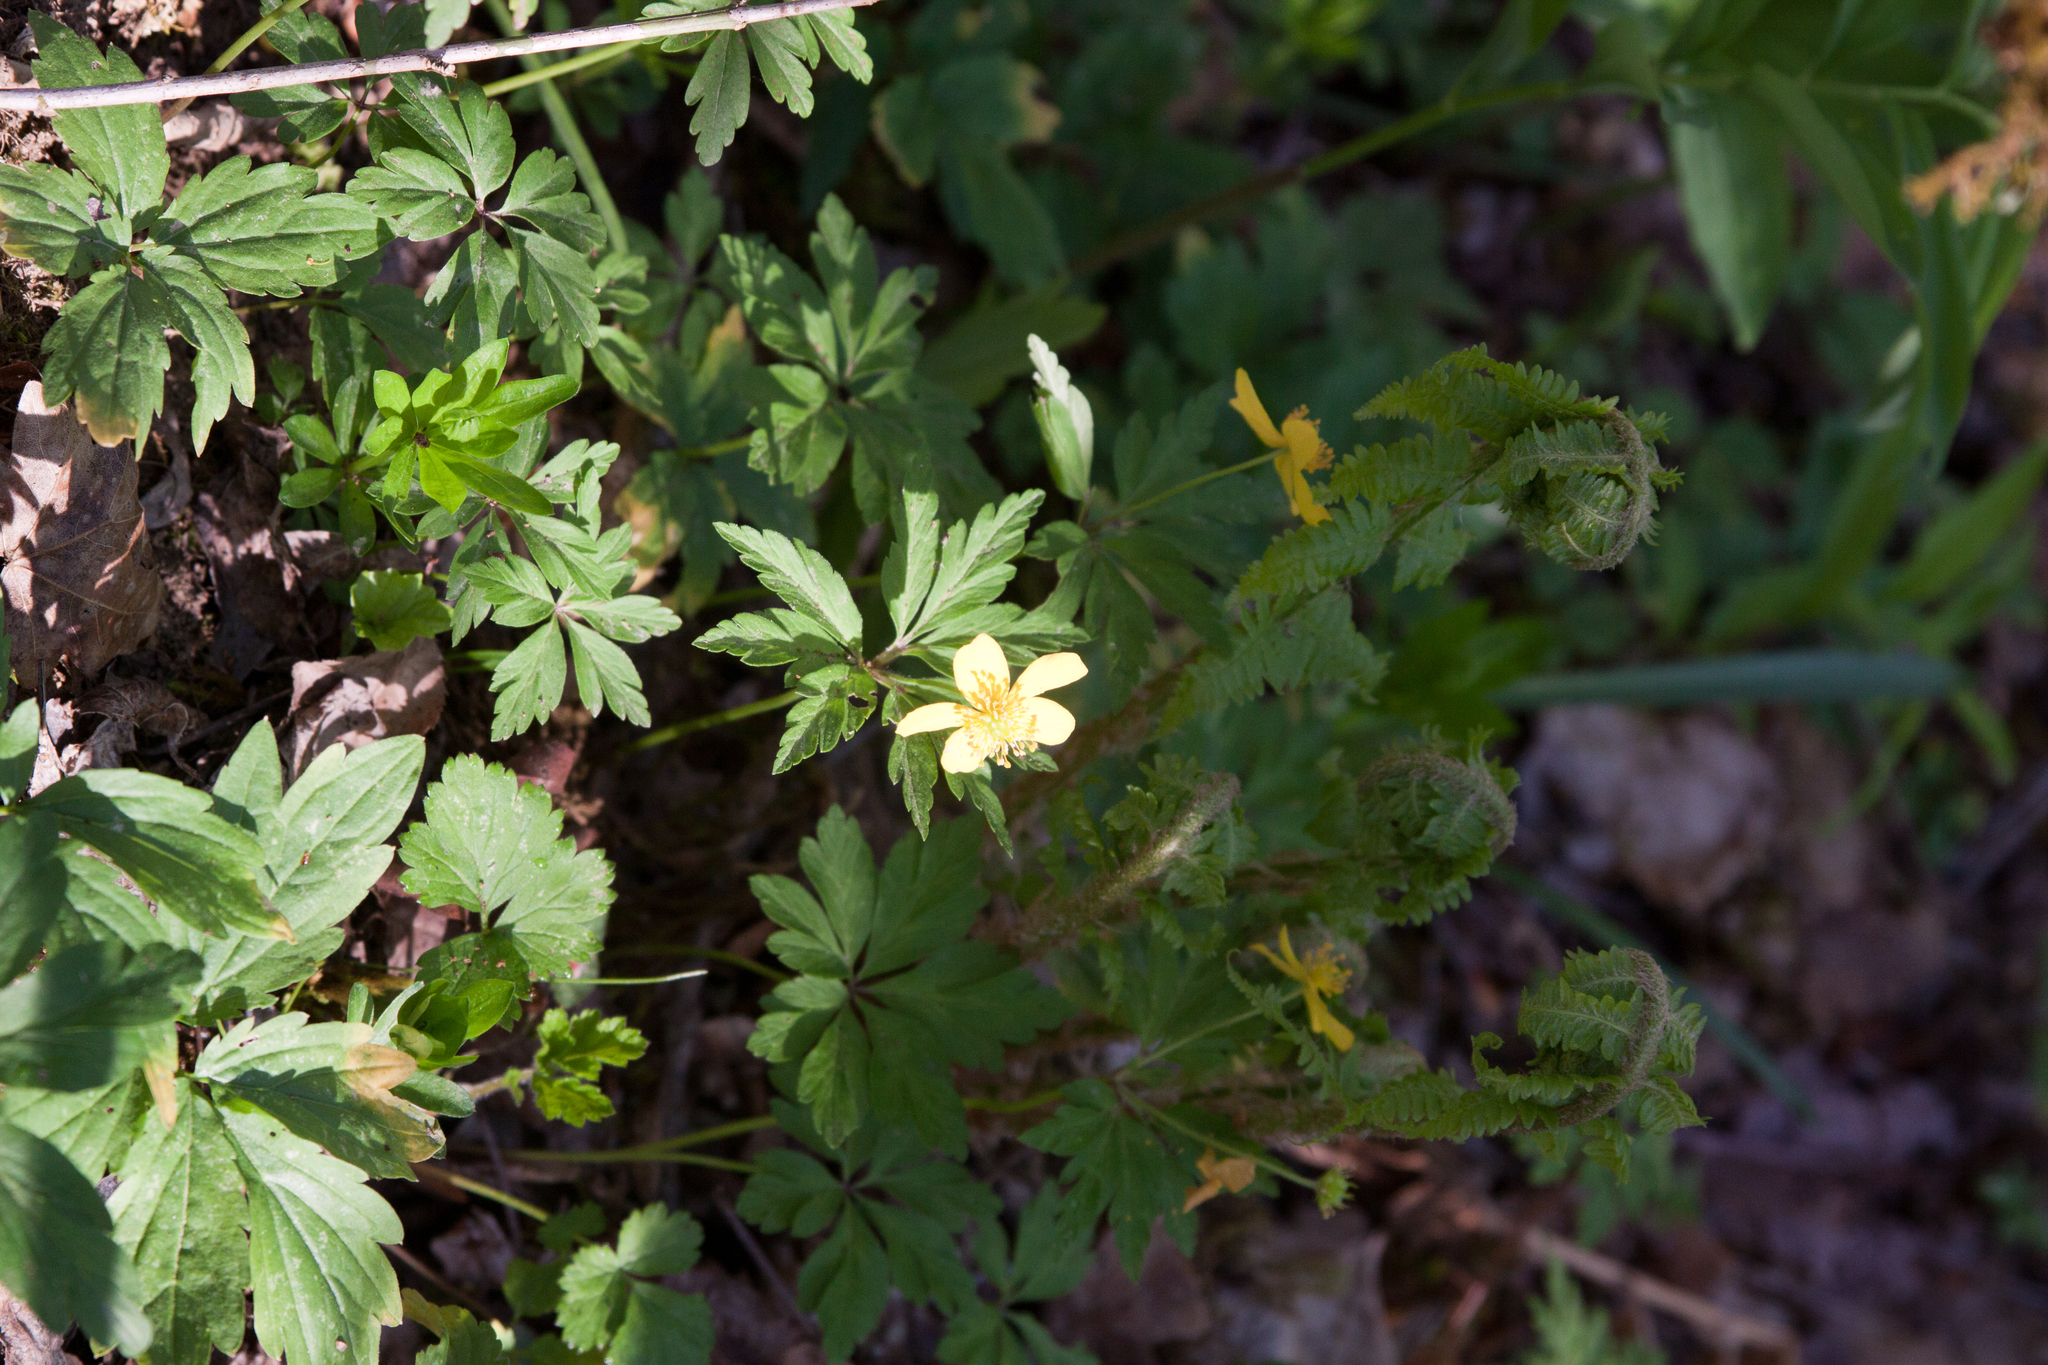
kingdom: Plantae
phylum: Tracheophyta
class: Magnoliopsida
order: Ranunculales
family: Ranunculaceae
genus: Anemone
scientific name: Anemone ranunculoides
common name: Yellow anemone
